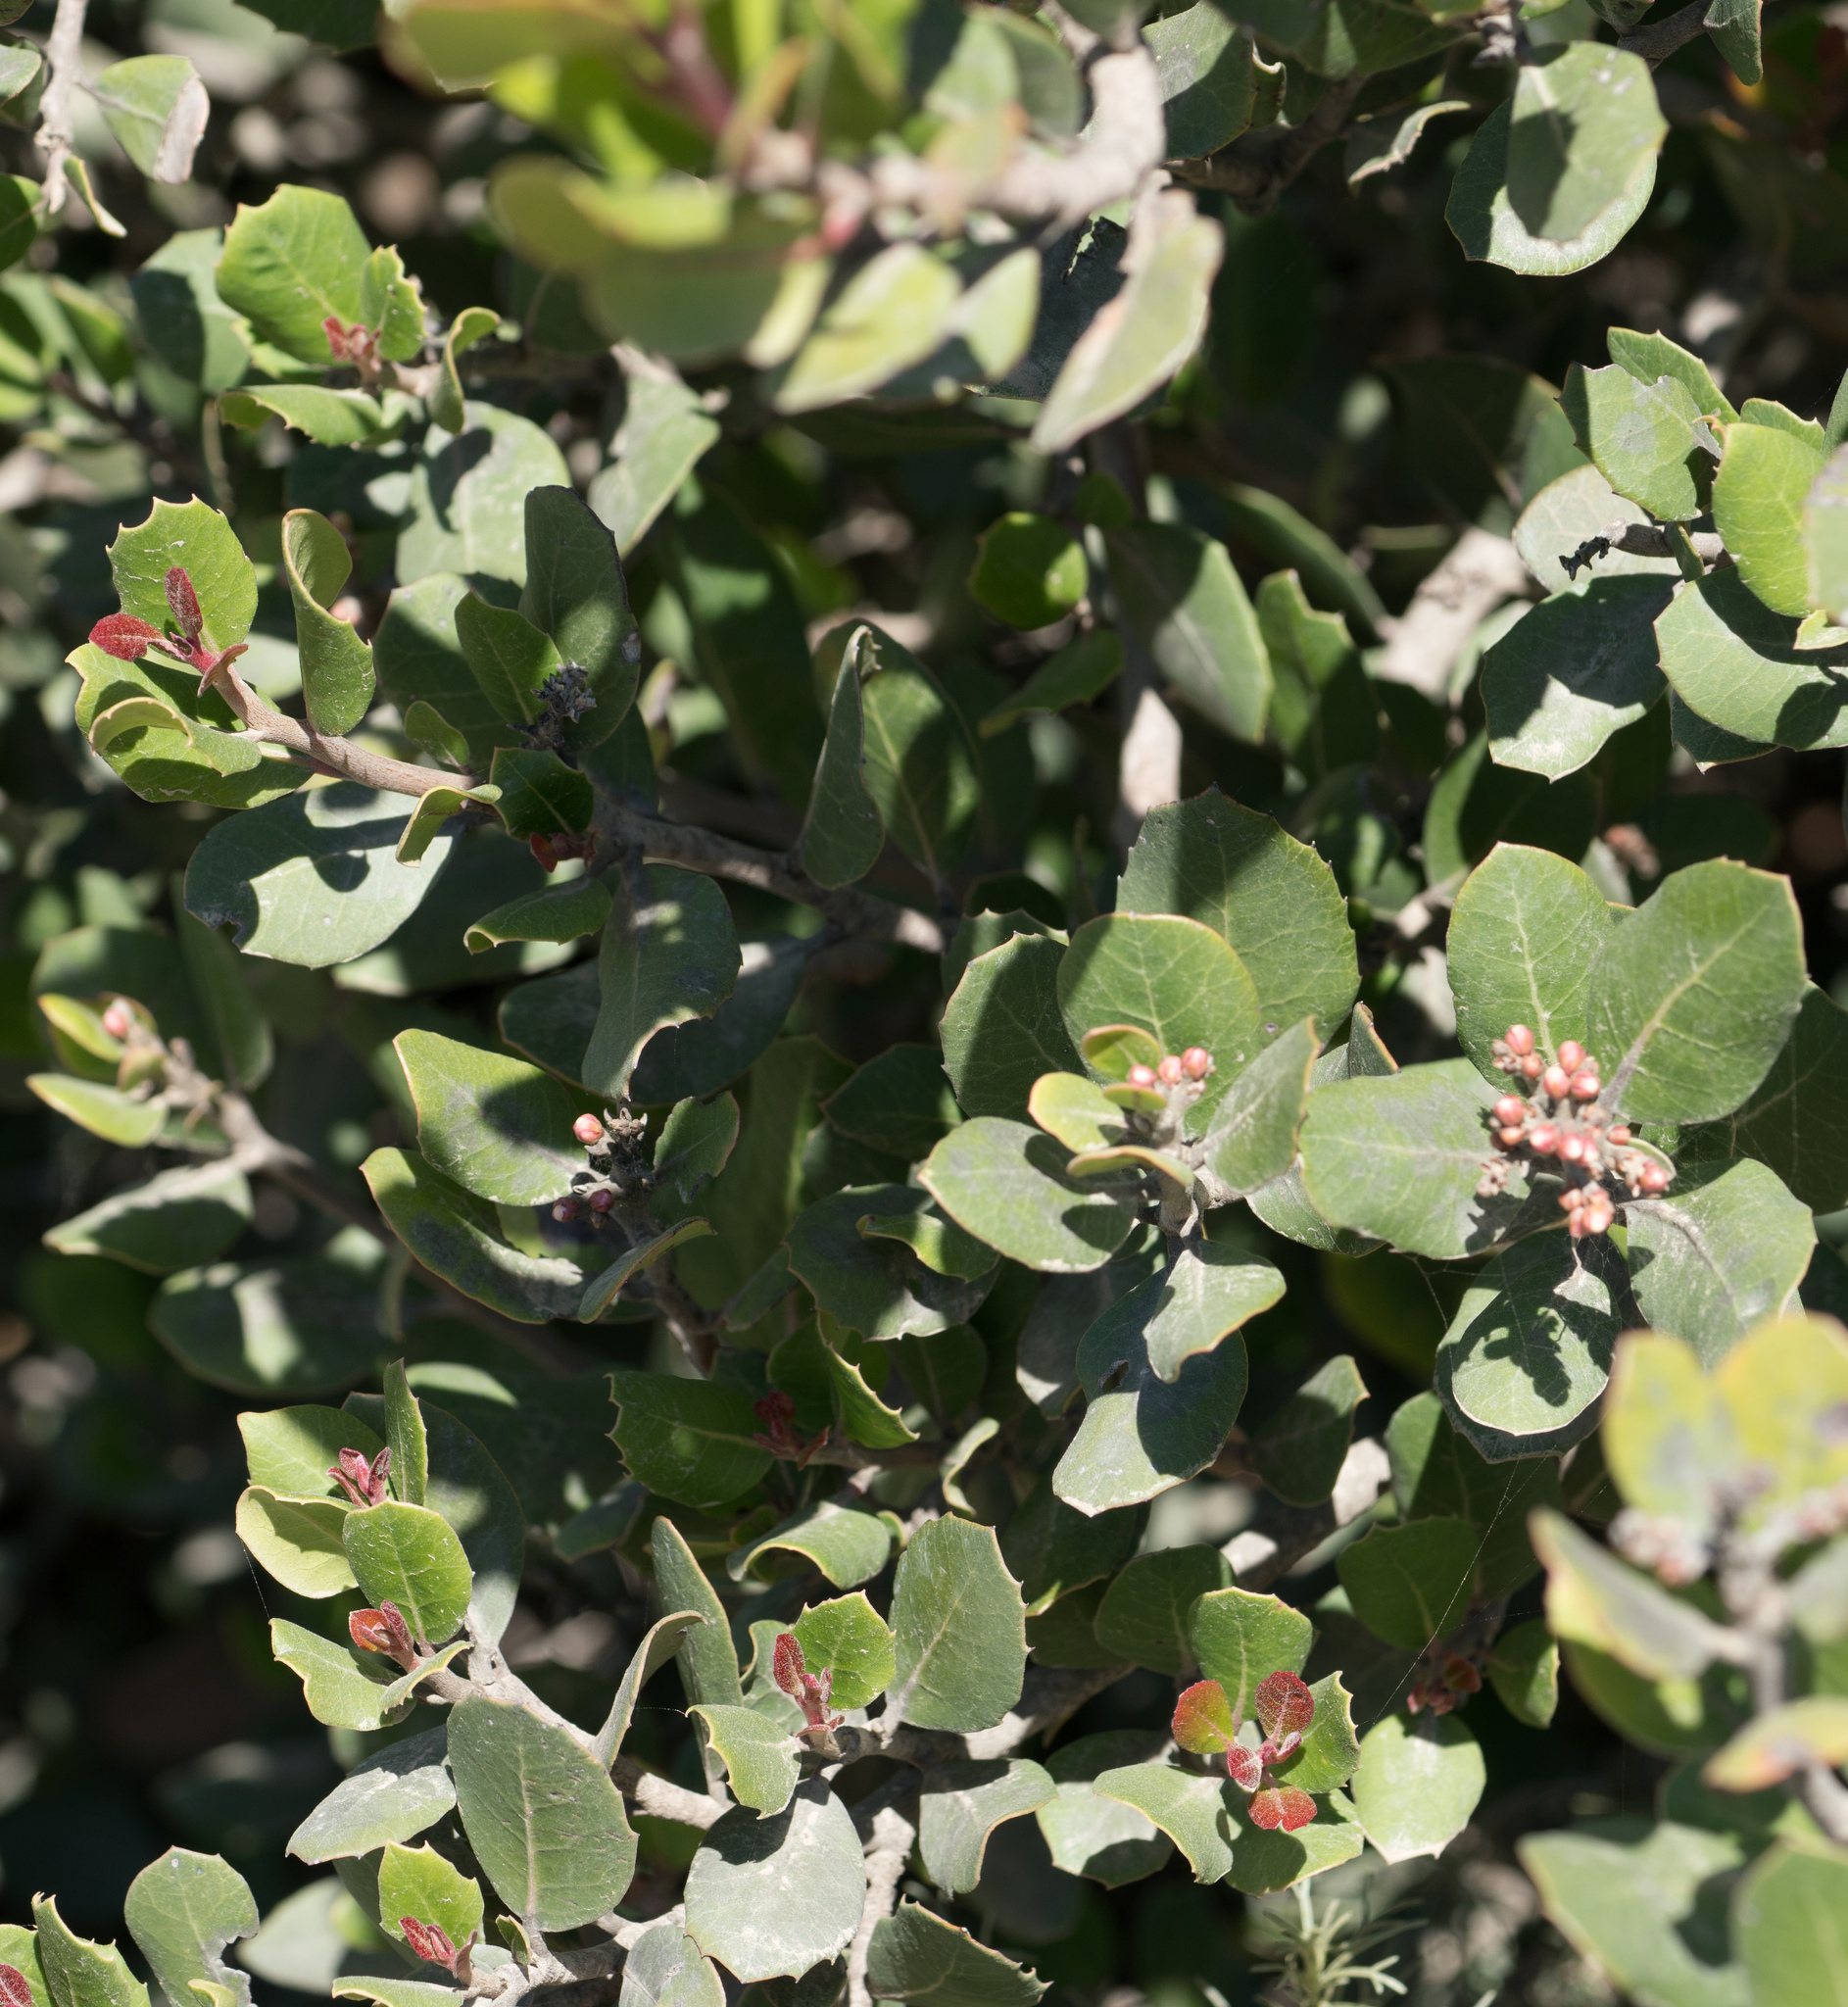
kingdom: Plantae
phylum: Tracheophyta
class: Magnoliopsida
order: Sapindales
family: Anacardiaceae
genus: Rhus
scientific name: Rhus integrifolia
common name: Lemonade sumac
